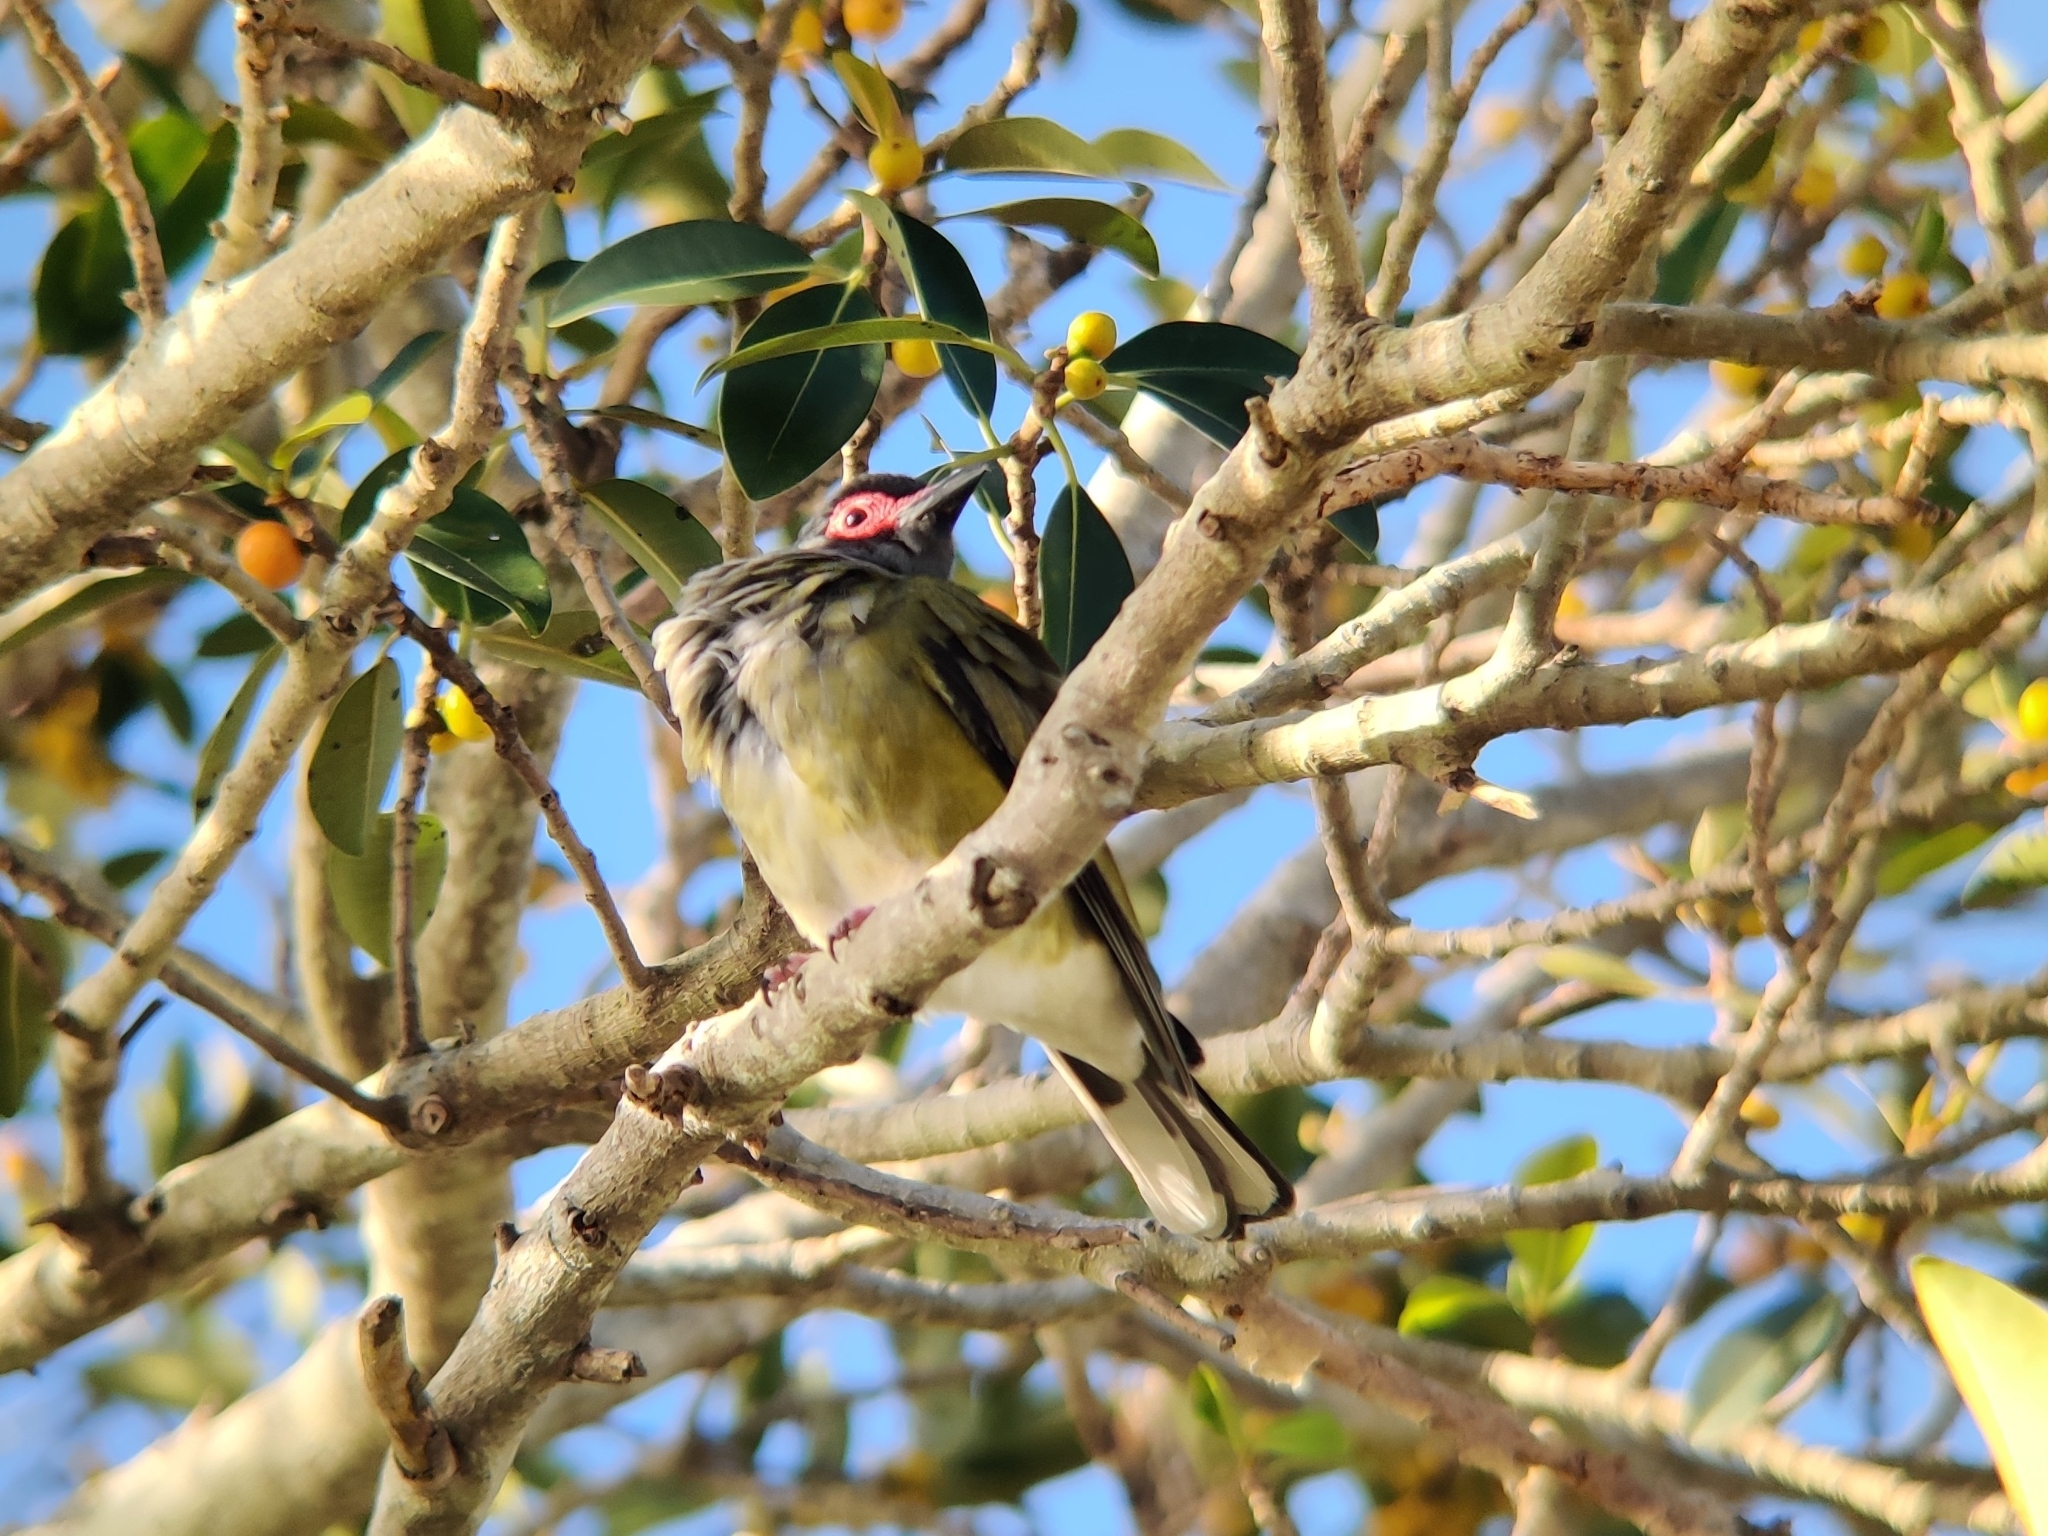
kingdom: Animalia
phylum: Chordata
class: Aves
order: Passeriformes
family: Oriolidae
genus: Sphecotheres
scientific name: Sphecotheres vieilloti
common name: Australasian figbird
